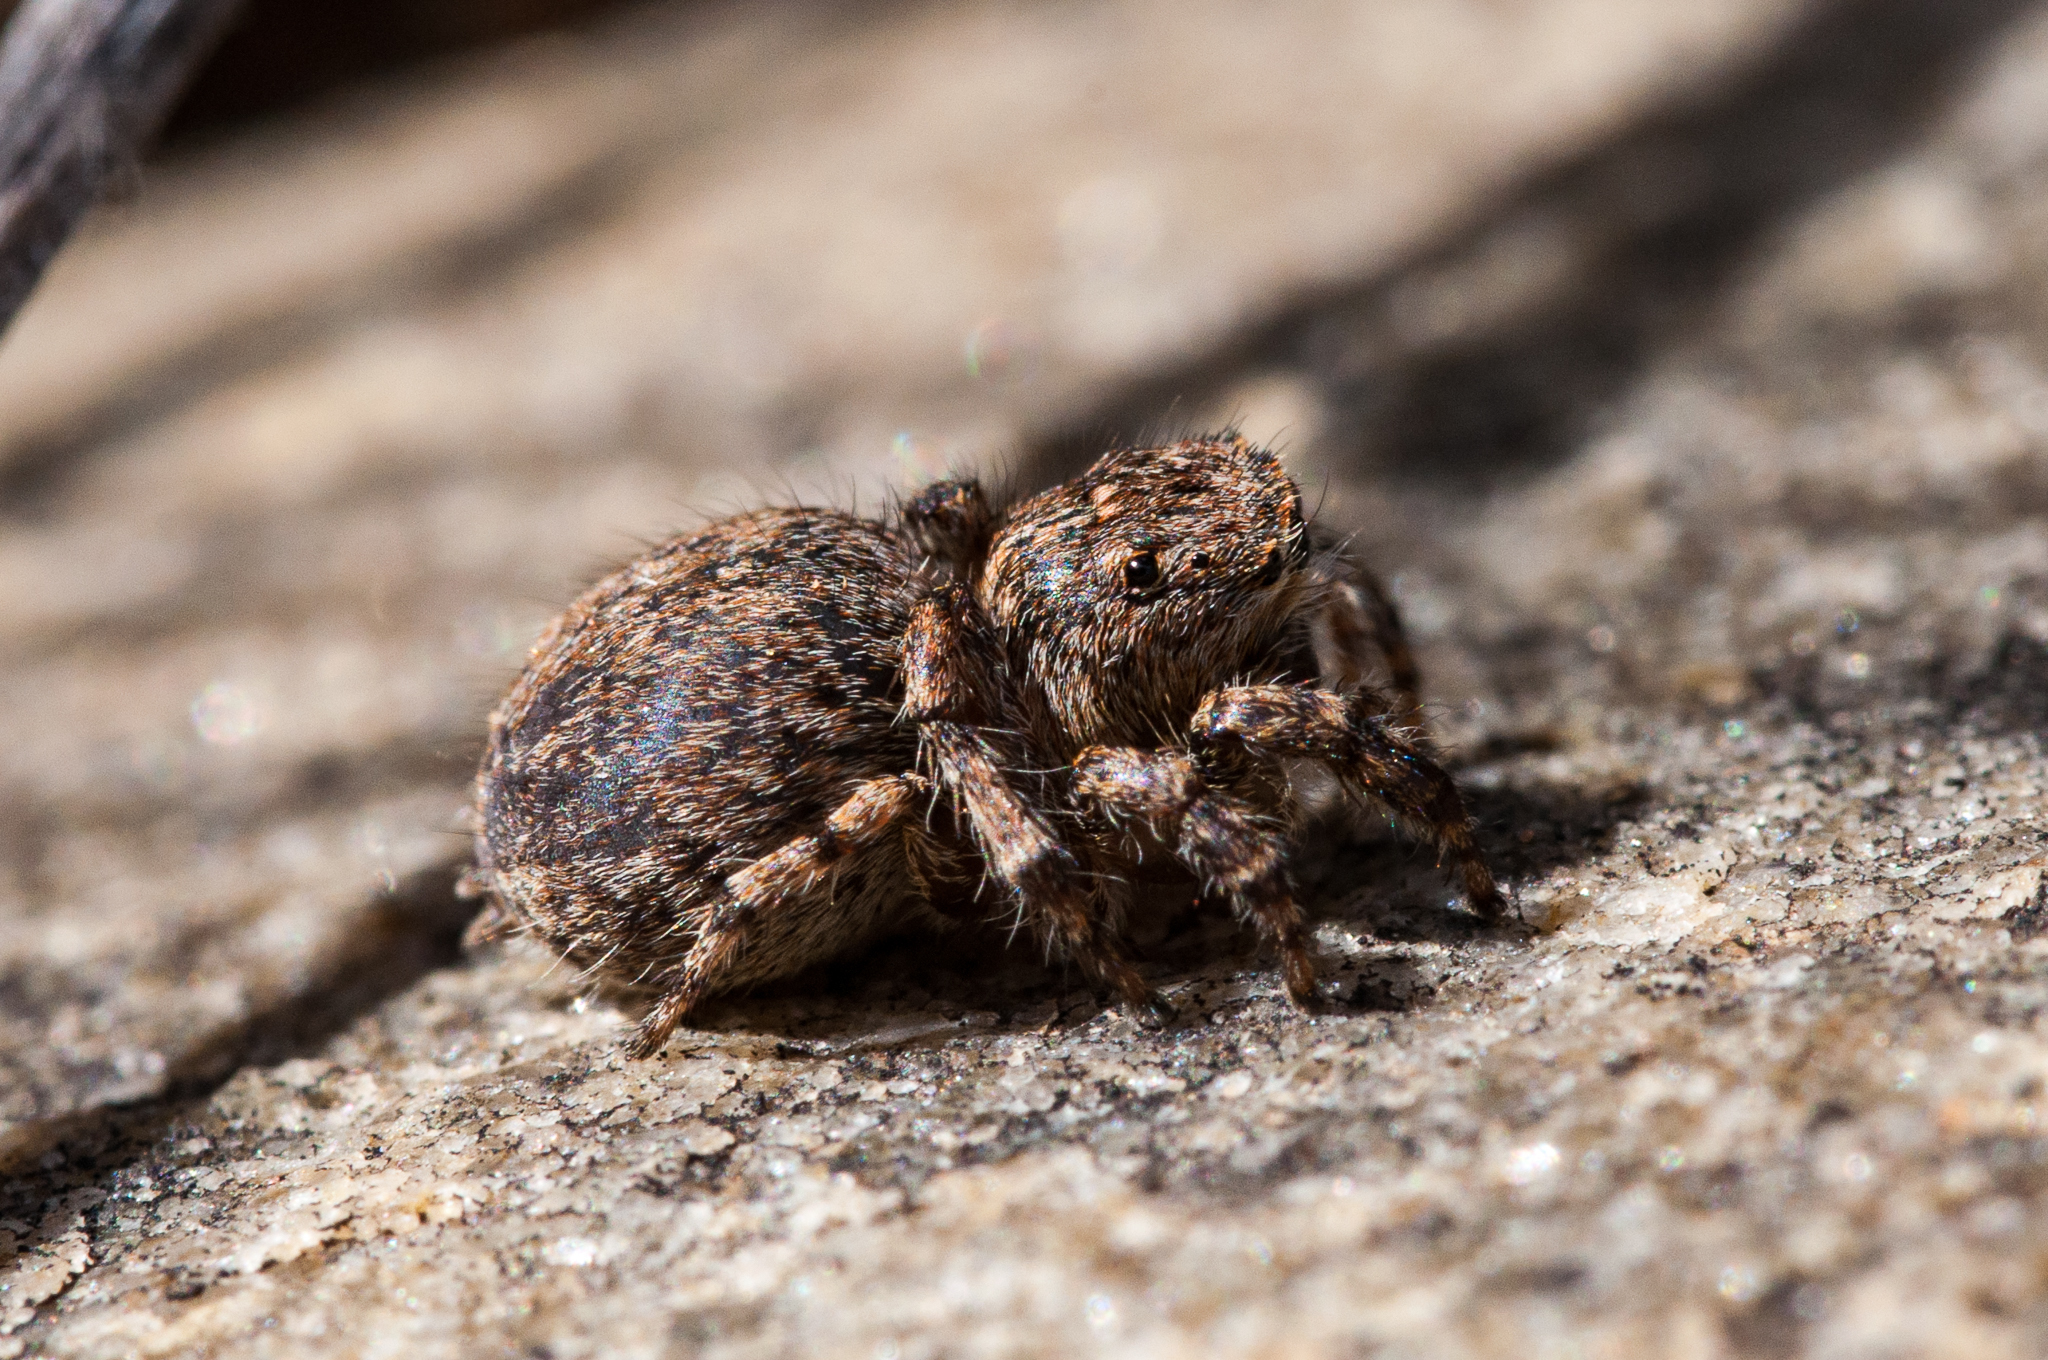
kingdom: Animalia
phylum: Arthropoda
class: Arachnida
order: Araneae
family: Salticidae
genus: Aelurillus
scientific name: Aelurillus cristatopalpus
